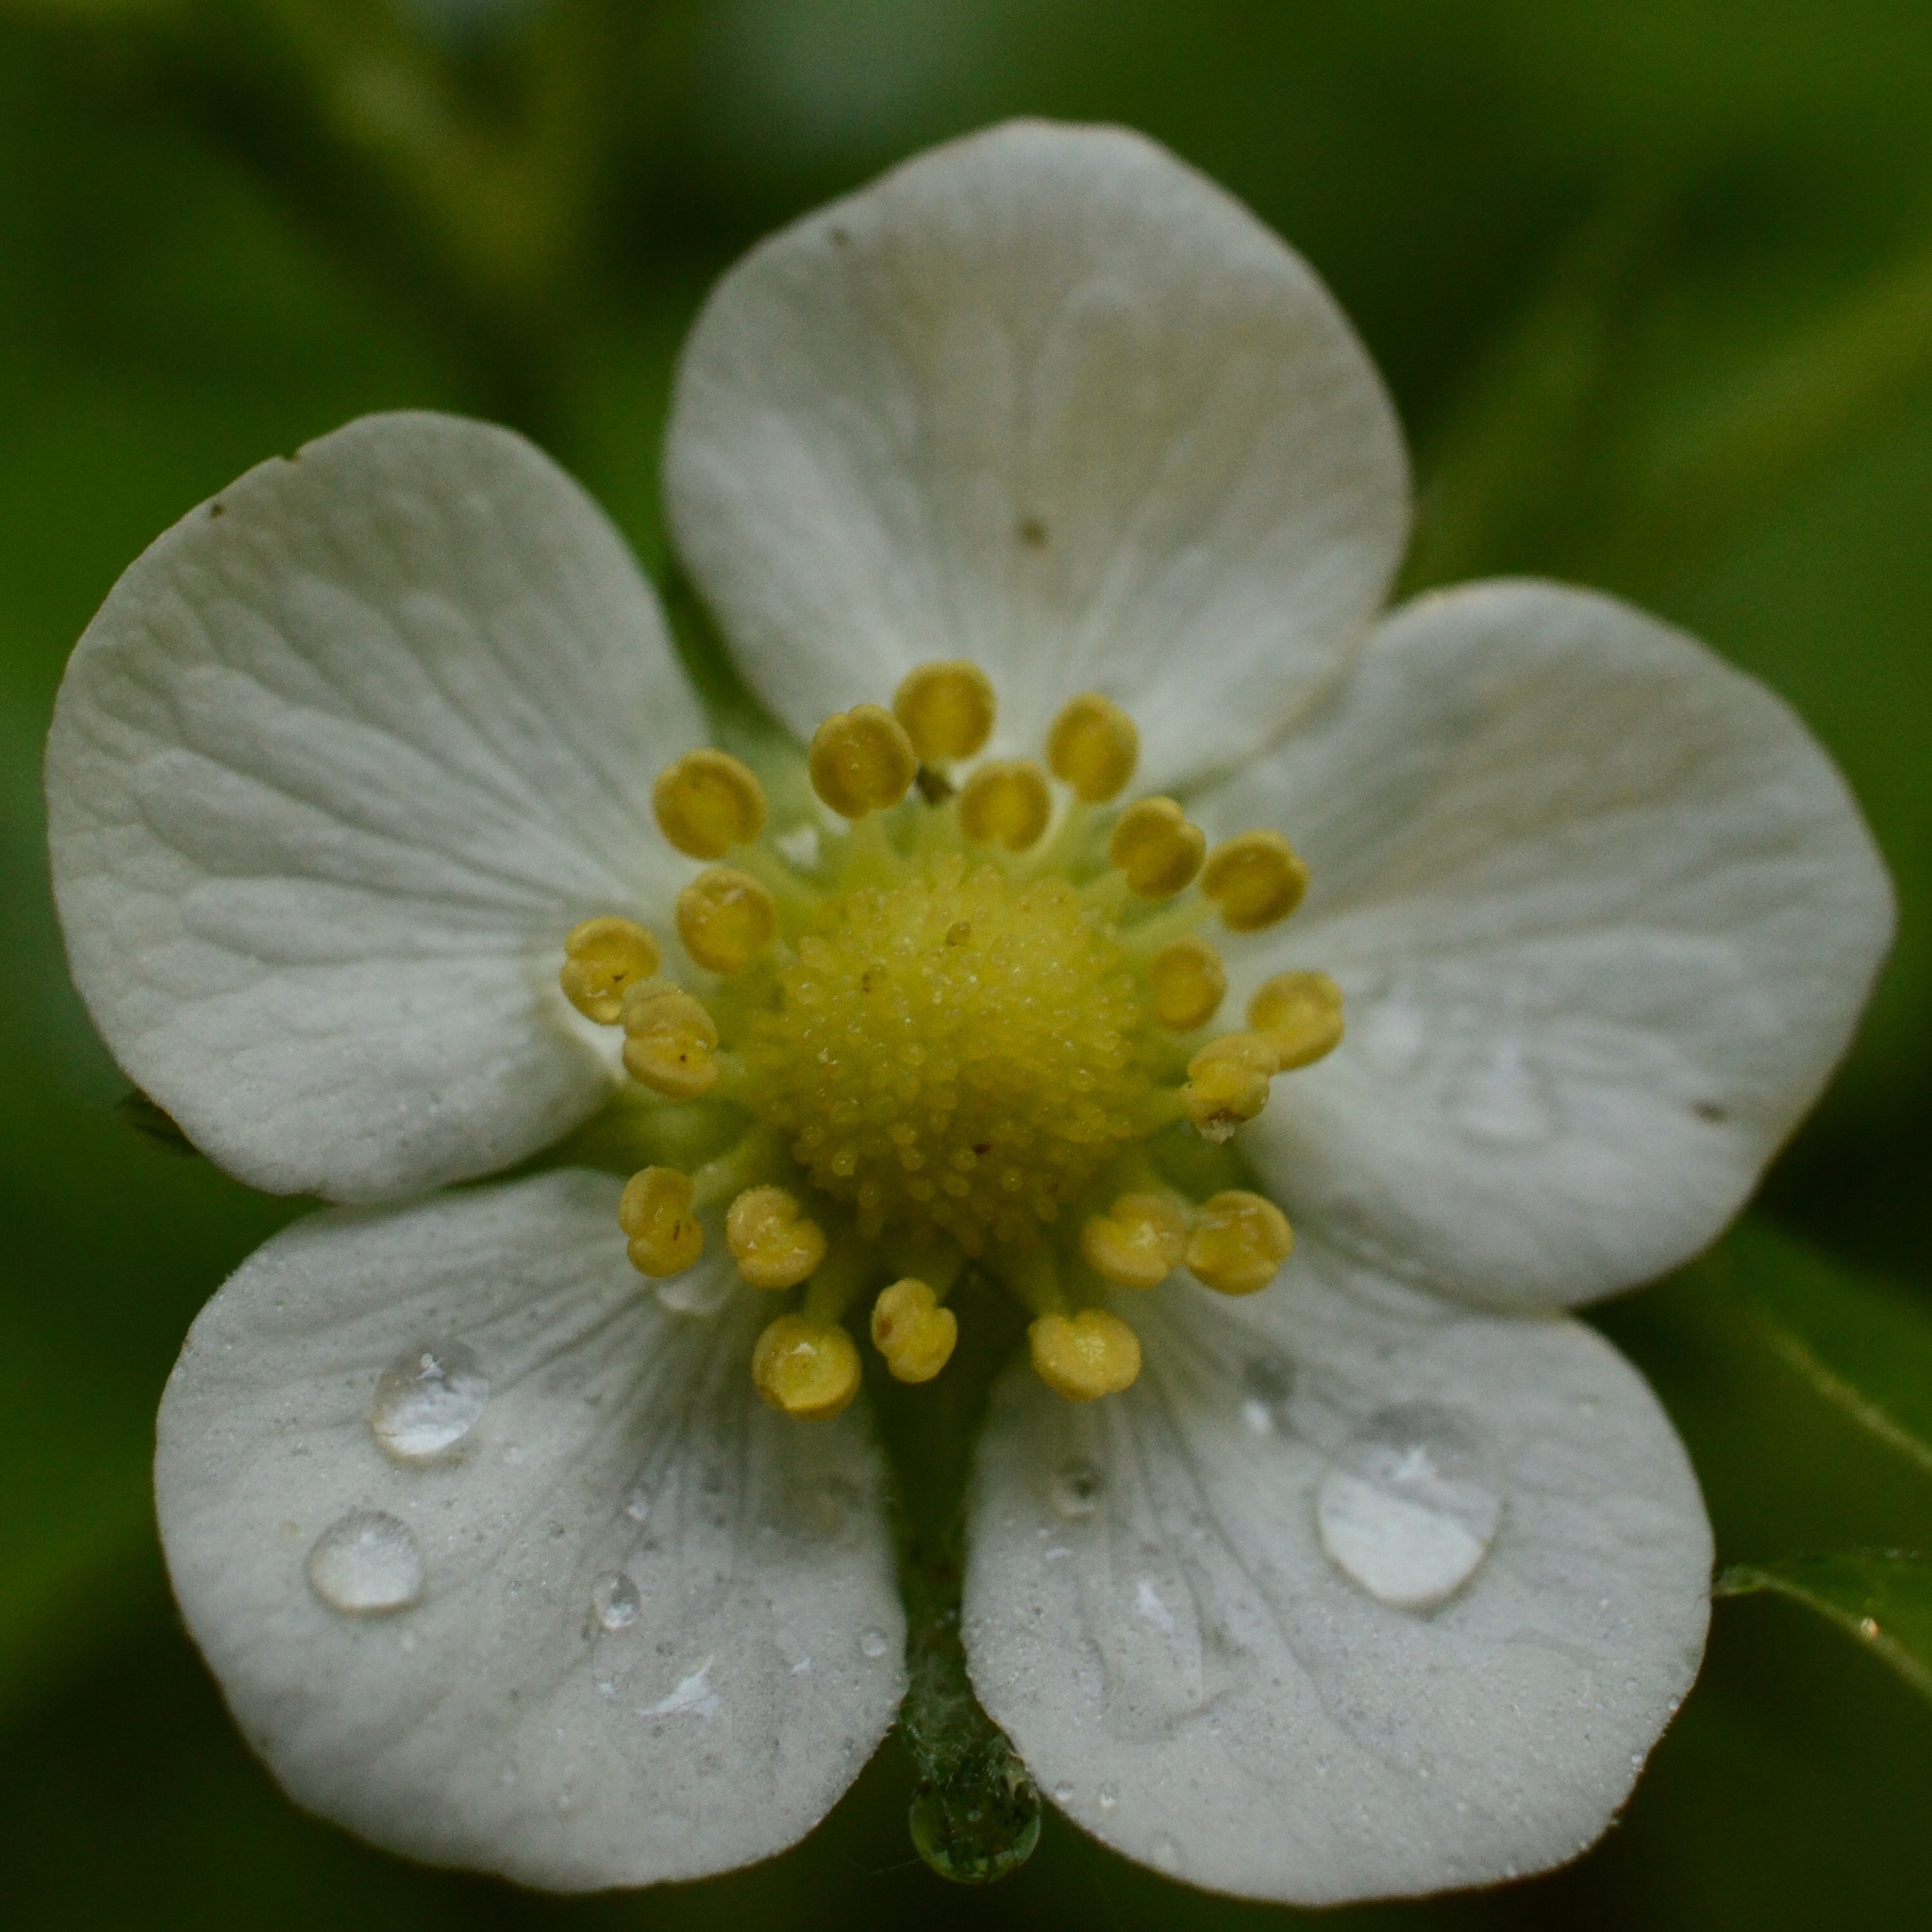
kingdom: Plantae
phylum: Tracheophyta
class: Magnoliopsida
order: Rosales
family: Rosaceae
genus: Fragaria
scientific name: Fragaria vesca
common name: Wild strawberry
